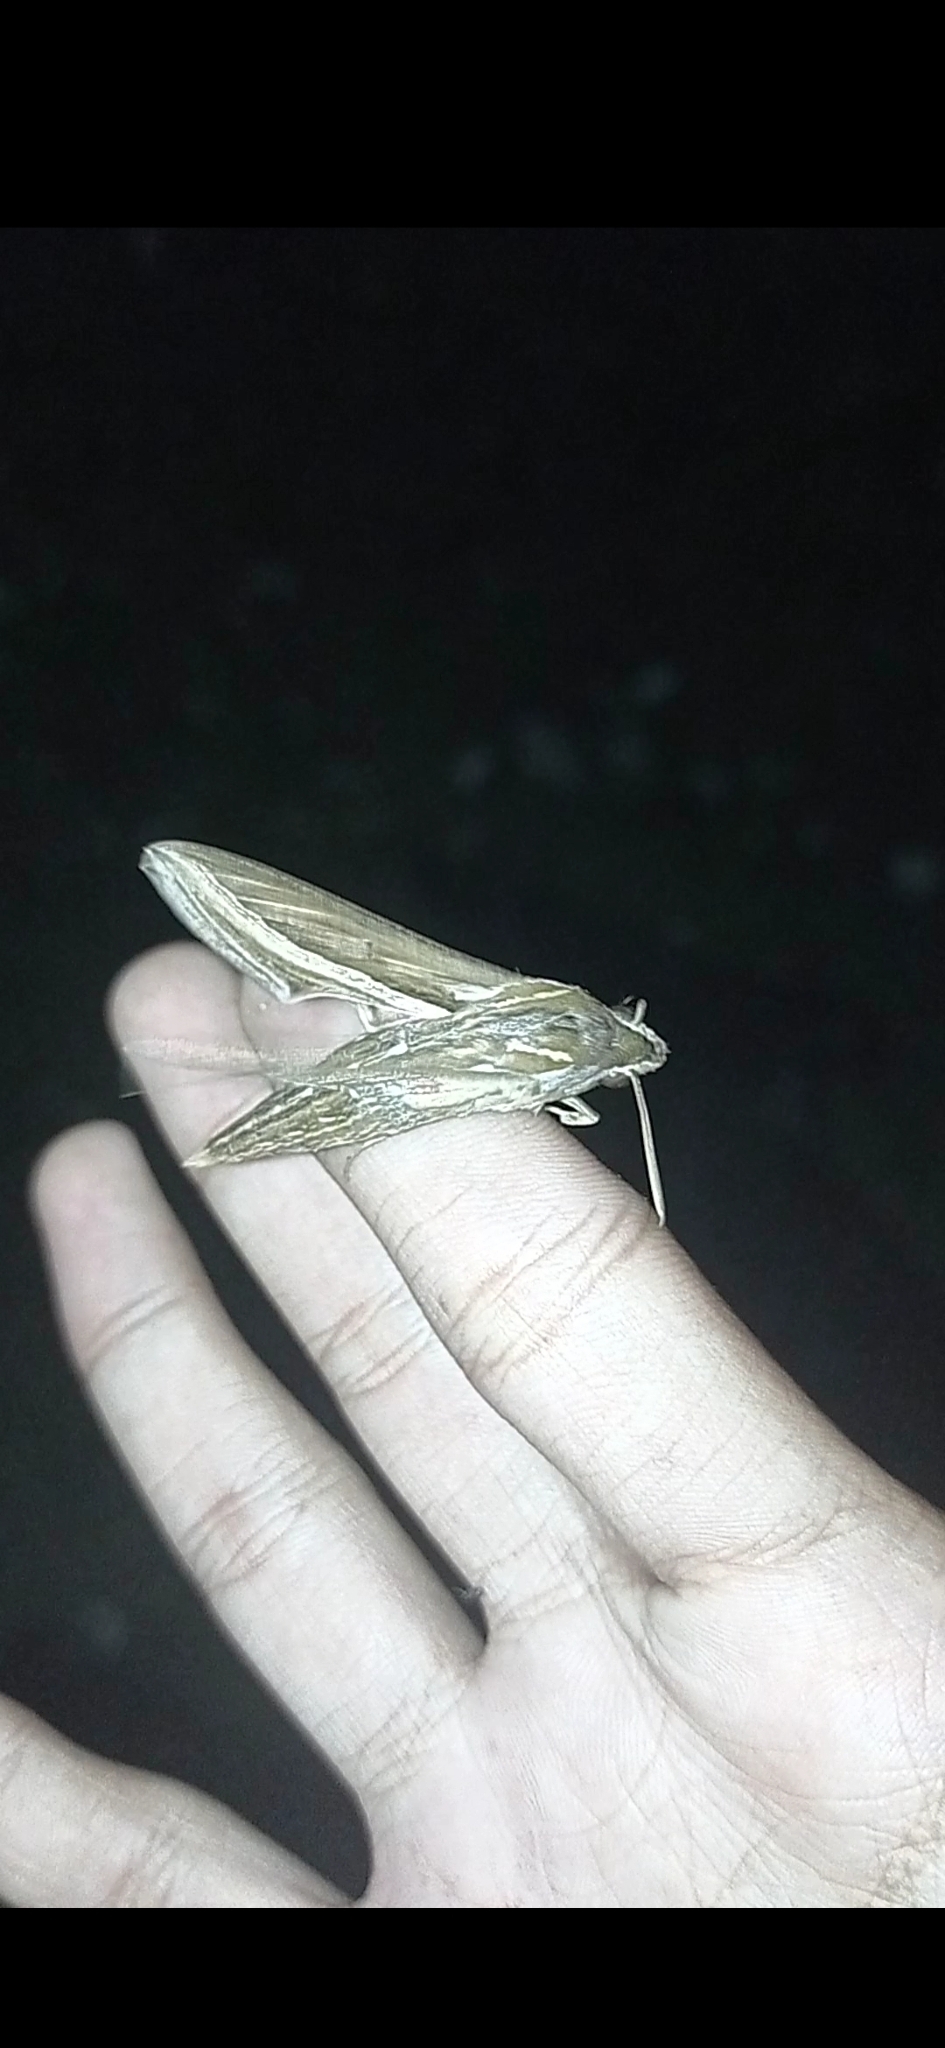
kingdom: Animalia
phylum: Arthropoda
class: Insecta
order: Lepidoptera
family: Sphingidae
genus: Hippotion
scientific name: Hippotion celerio
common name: Silver-striped hawk-moth
